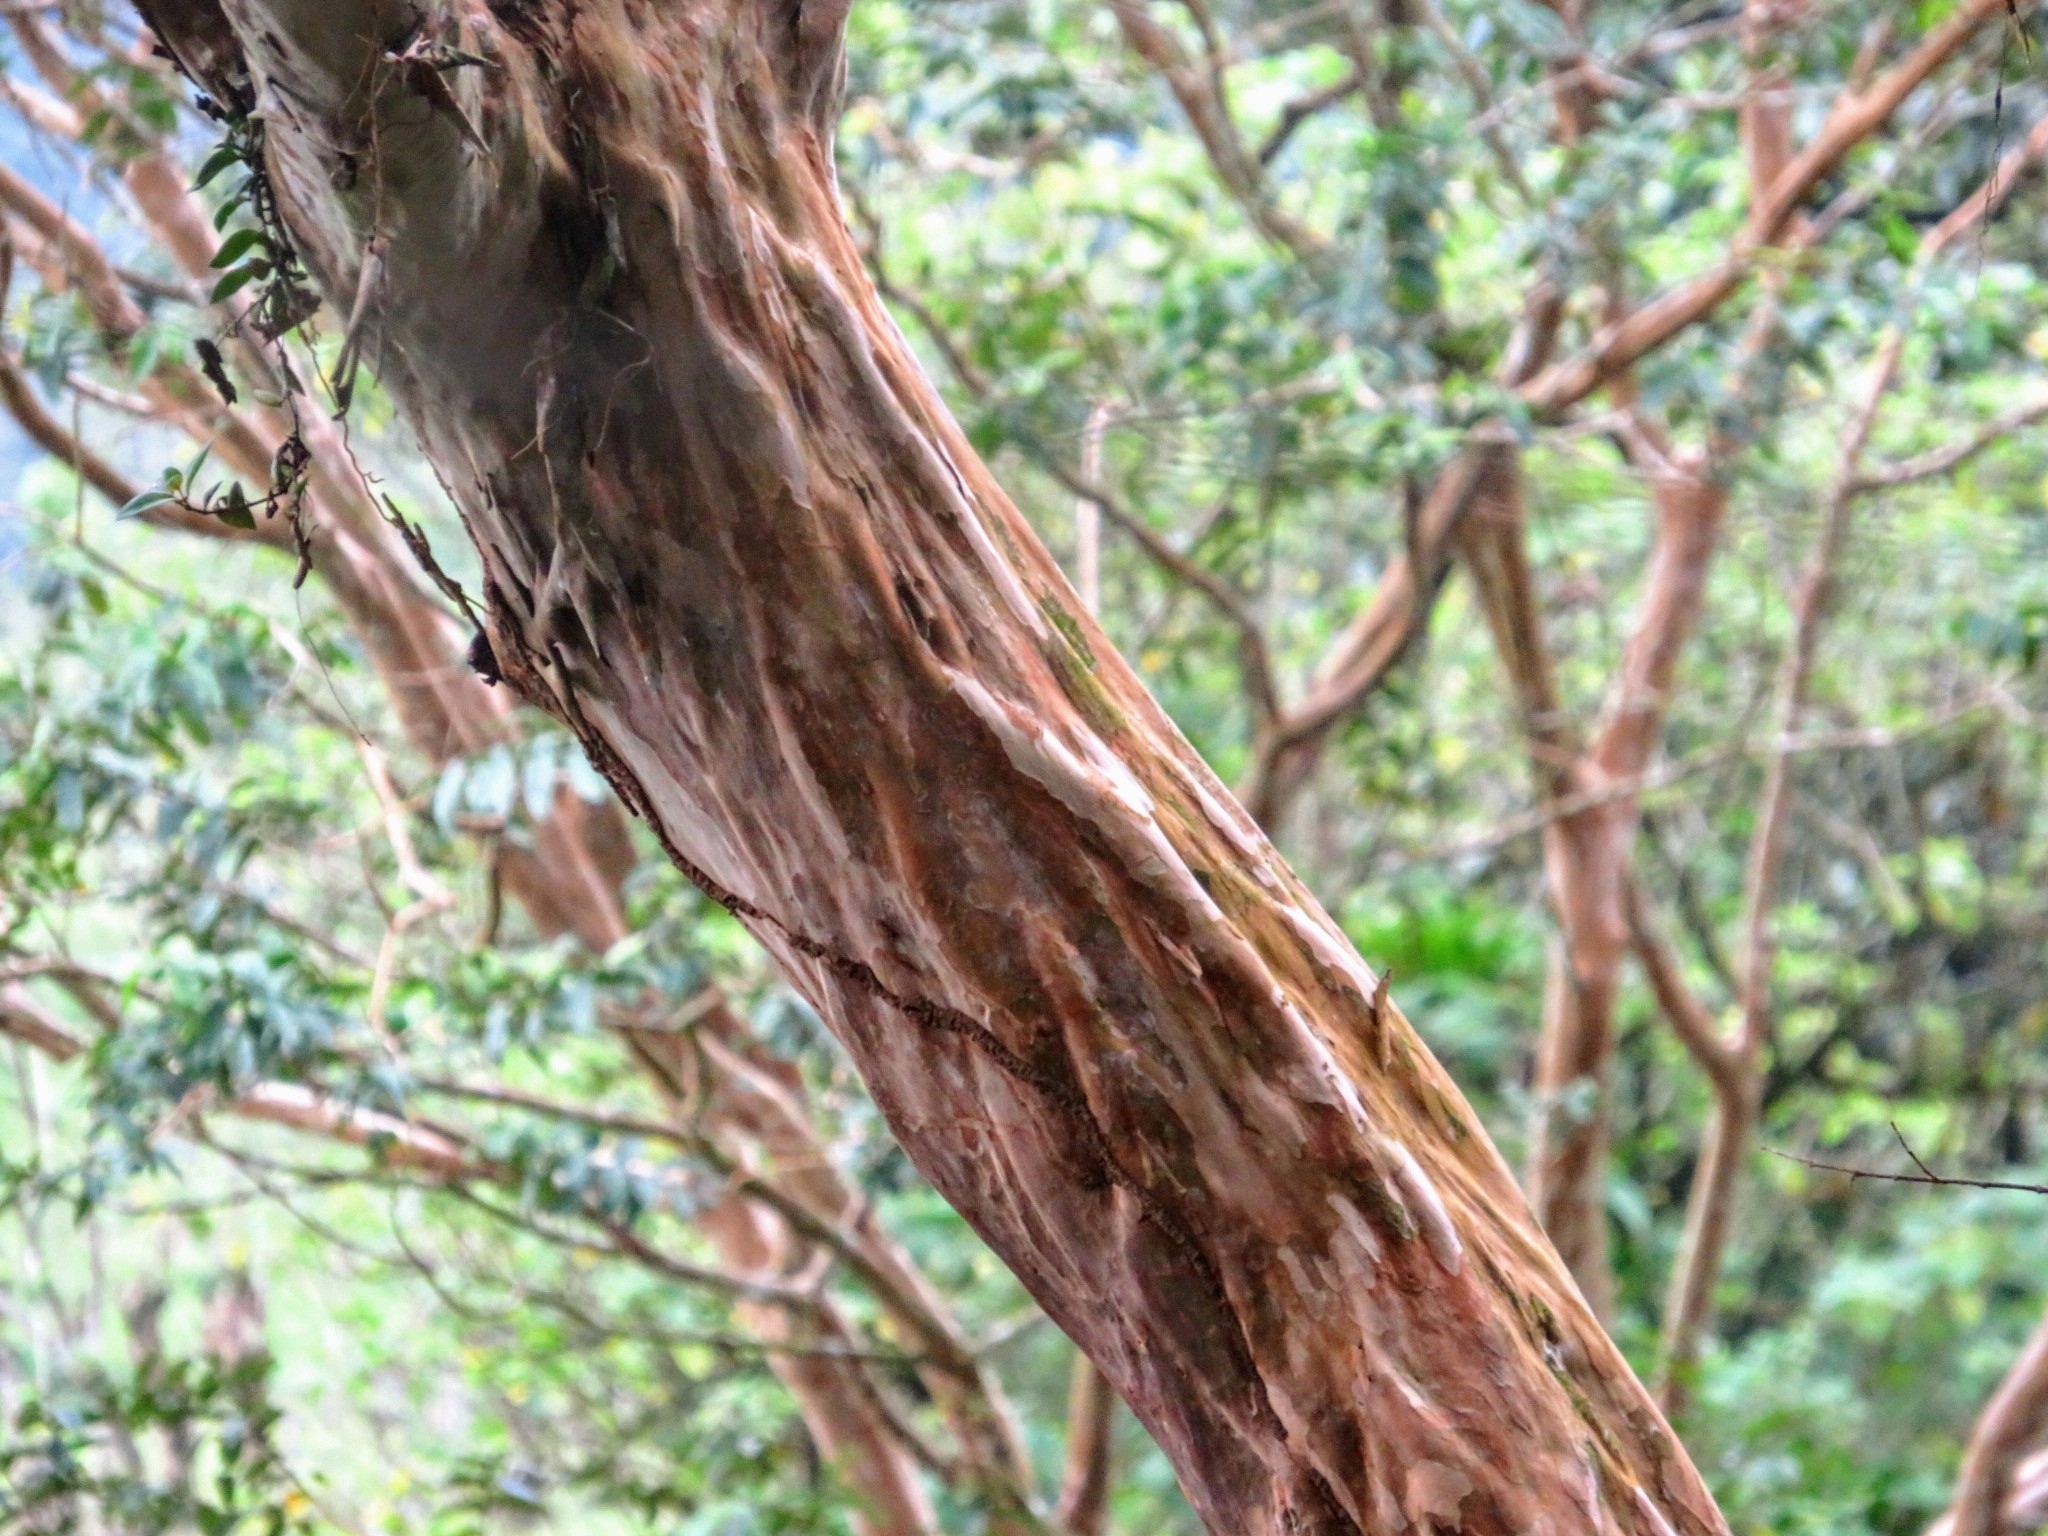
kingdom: Plantae
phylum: Tracheophyta
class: Magnoliopsida
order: Myrtales
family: Myrtaceae
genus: Psidium
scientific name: Psidium guajava
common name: Guava
